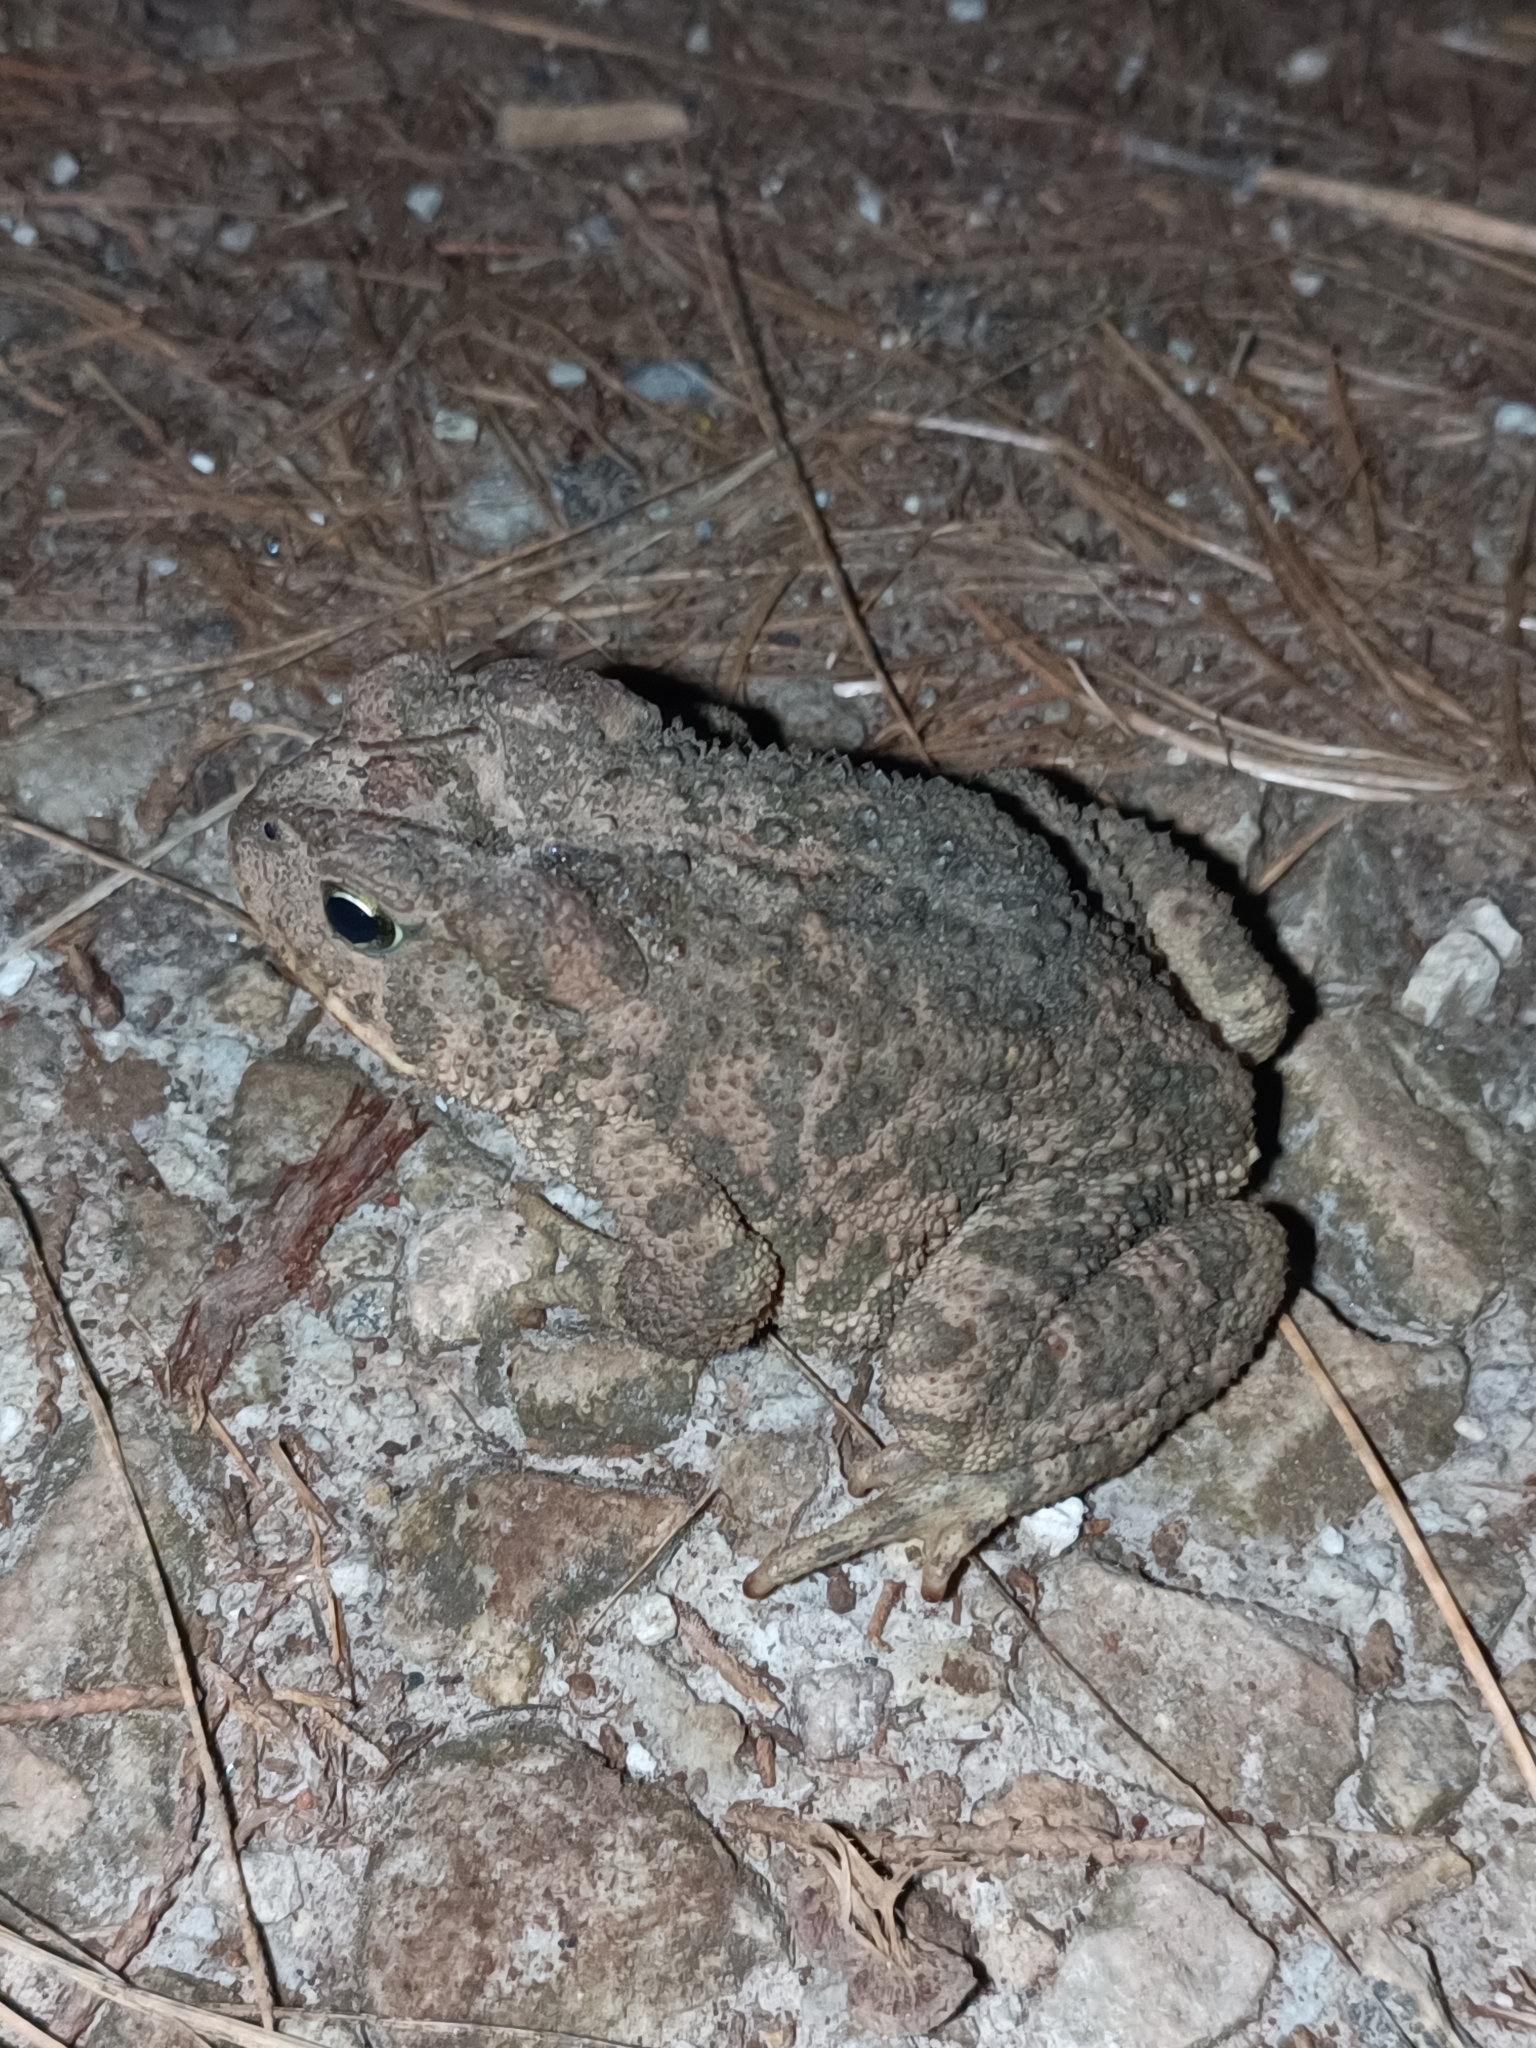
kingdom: Animalia
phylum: Chordata
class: Amphibia
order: Anura
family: Bufonidae
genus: Incilius
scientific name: Incilius occidentalis
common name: Pine toad
